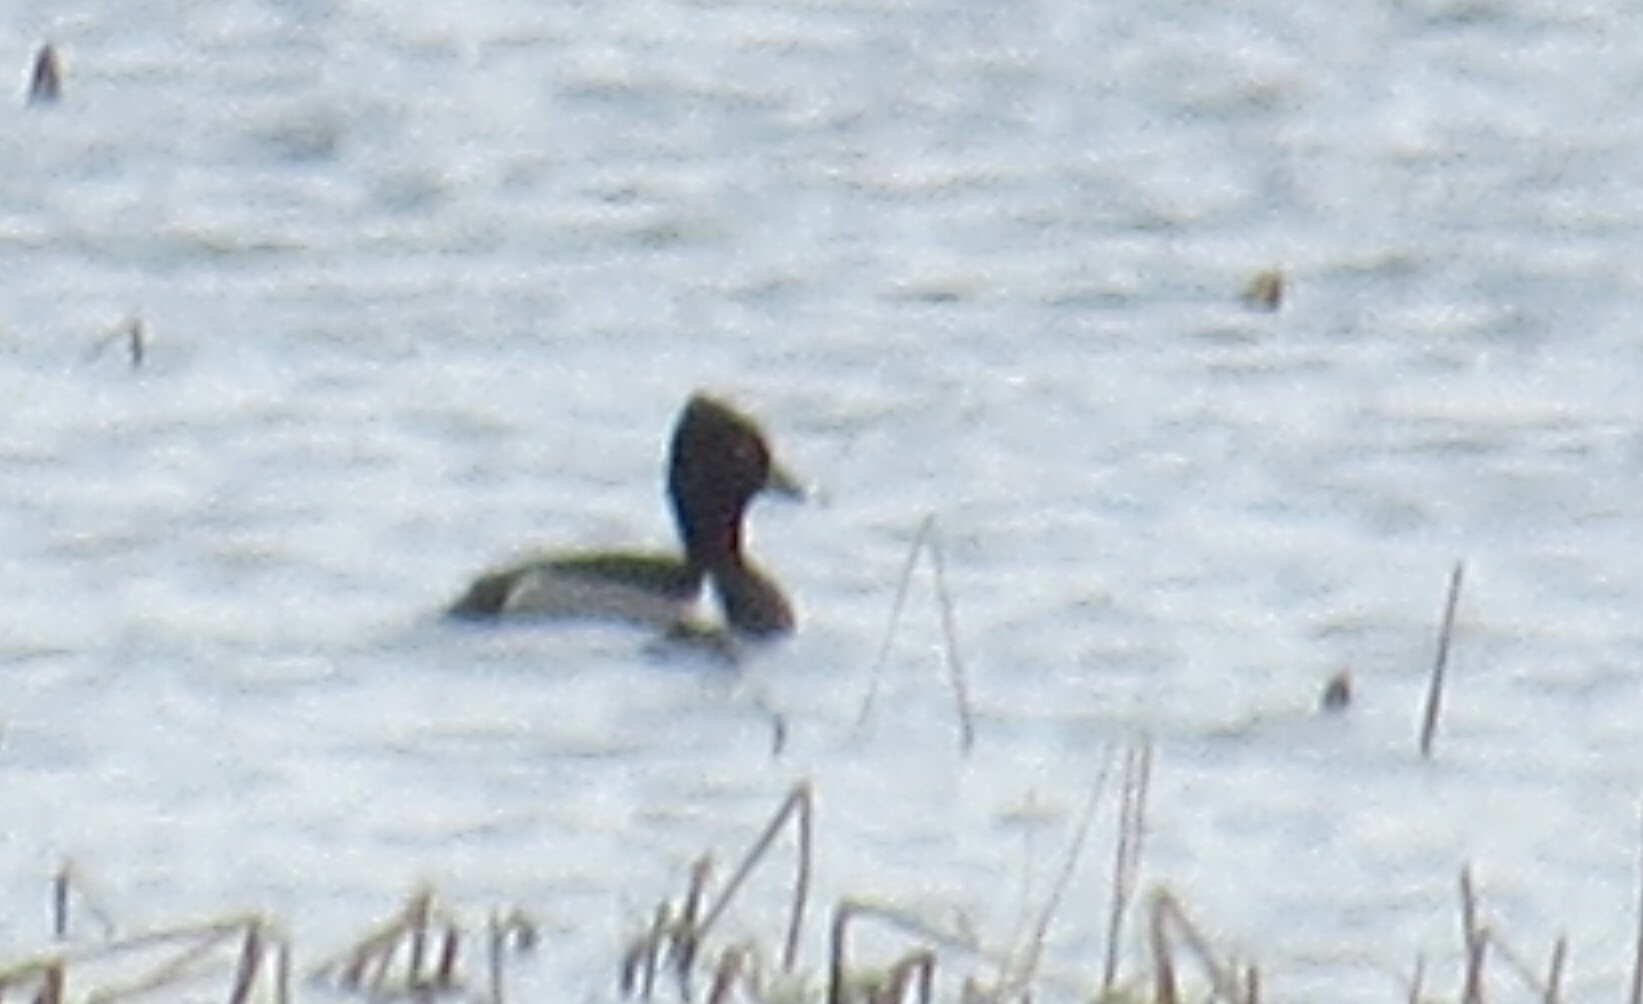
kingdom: Animalia
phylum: Chordata
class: Aves
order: Anseriformes
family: Anatidae
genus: Aythya
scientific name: Aythya collaris
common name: Ring-necked duck
